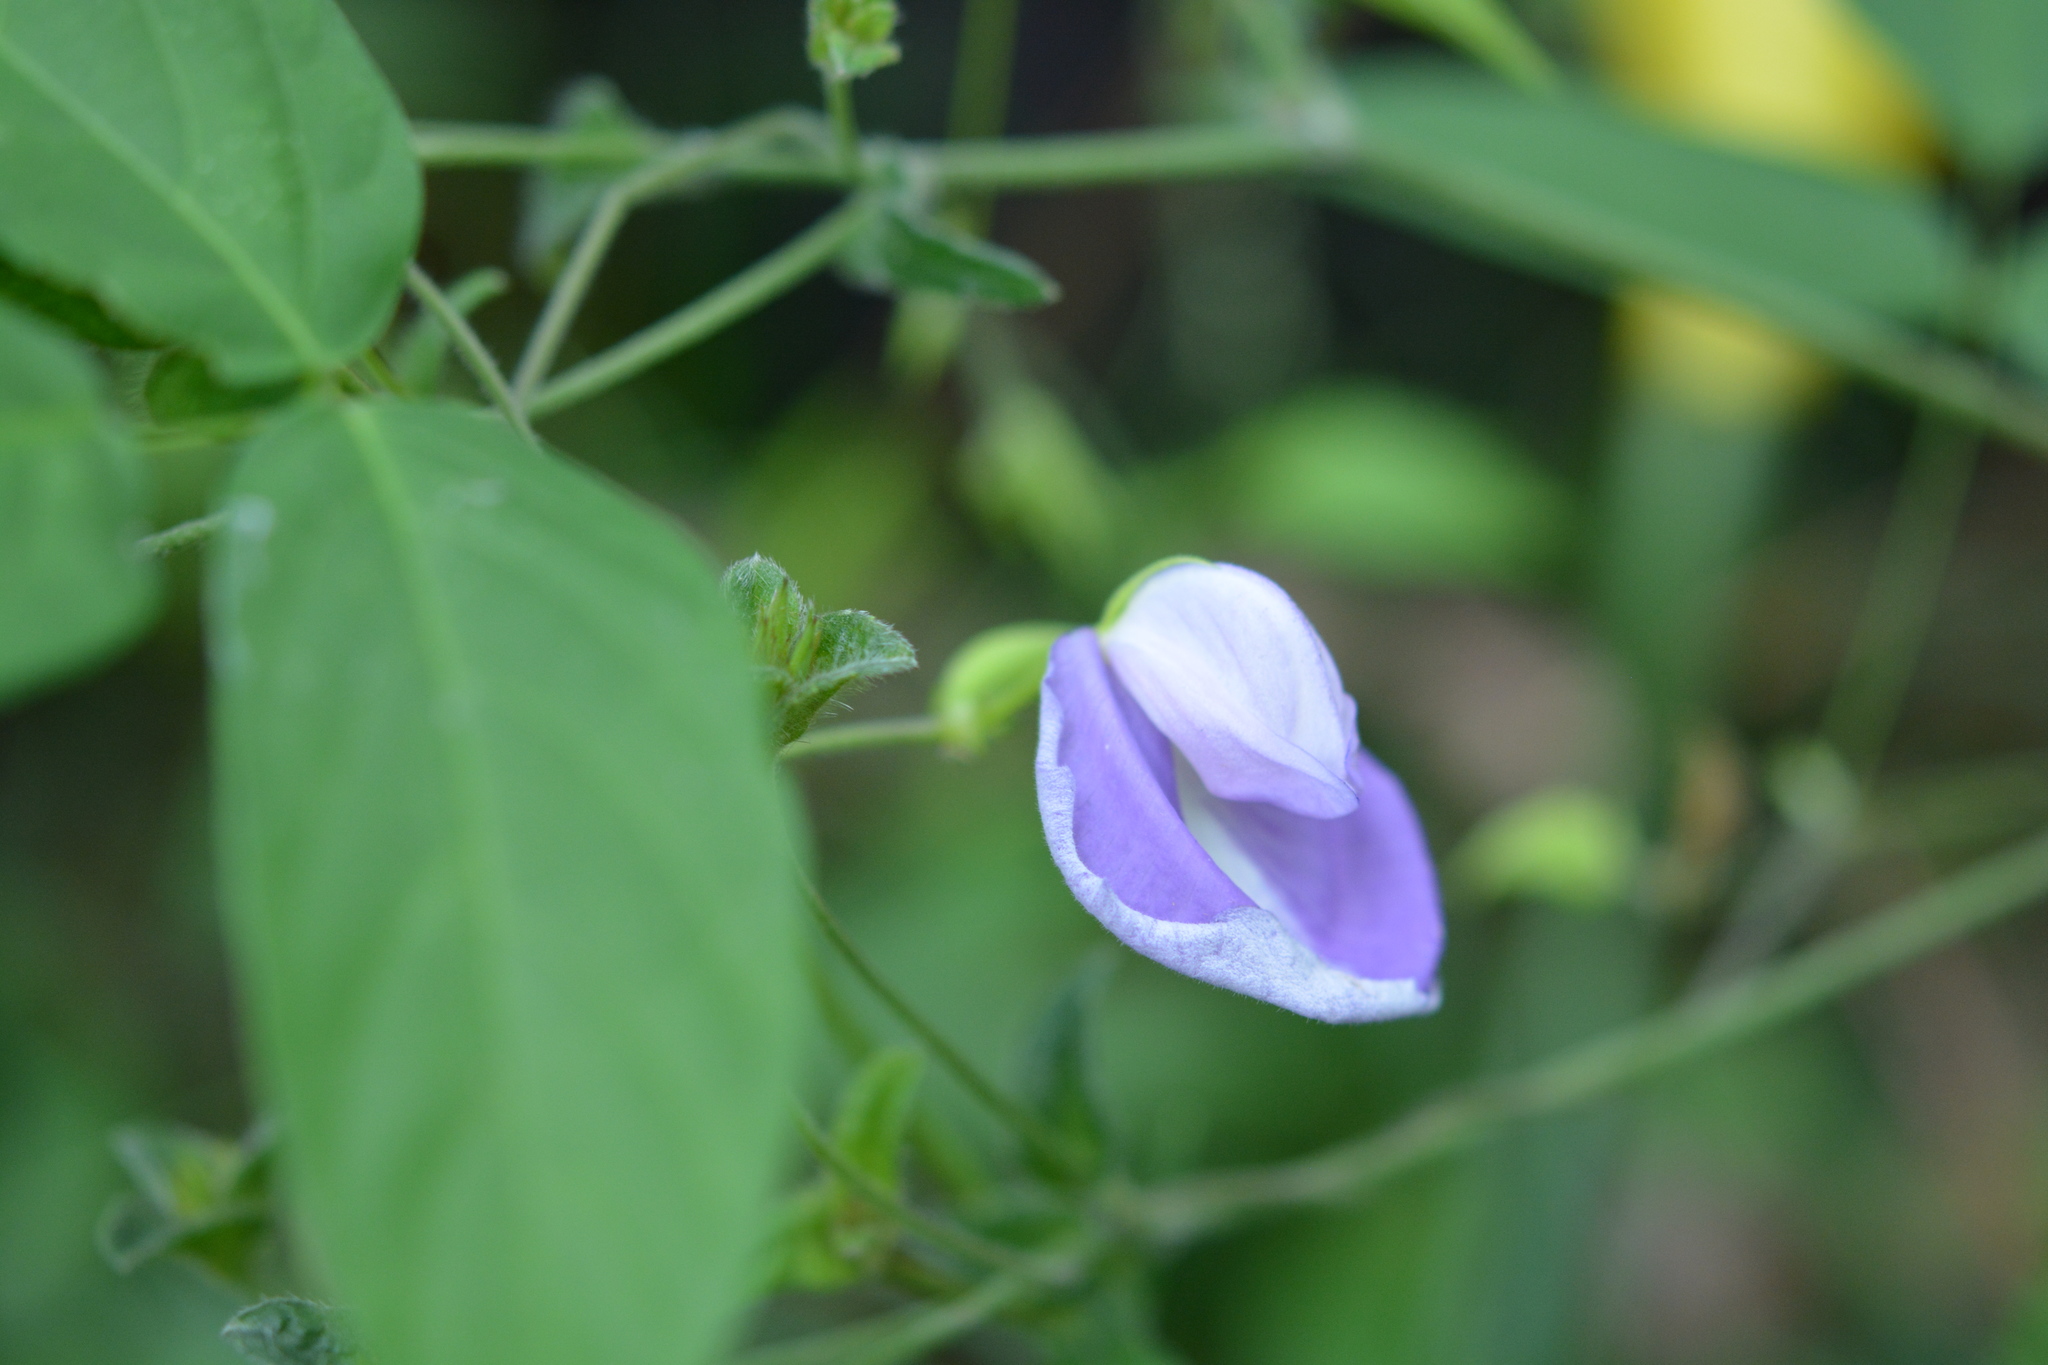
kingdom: Plantae
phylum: Tracheophyta
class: Magnoliopsida
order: Fabales
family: Fabaceae
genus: Centrosema
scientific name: Centrosema virginianum
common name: Butterfly-pea
